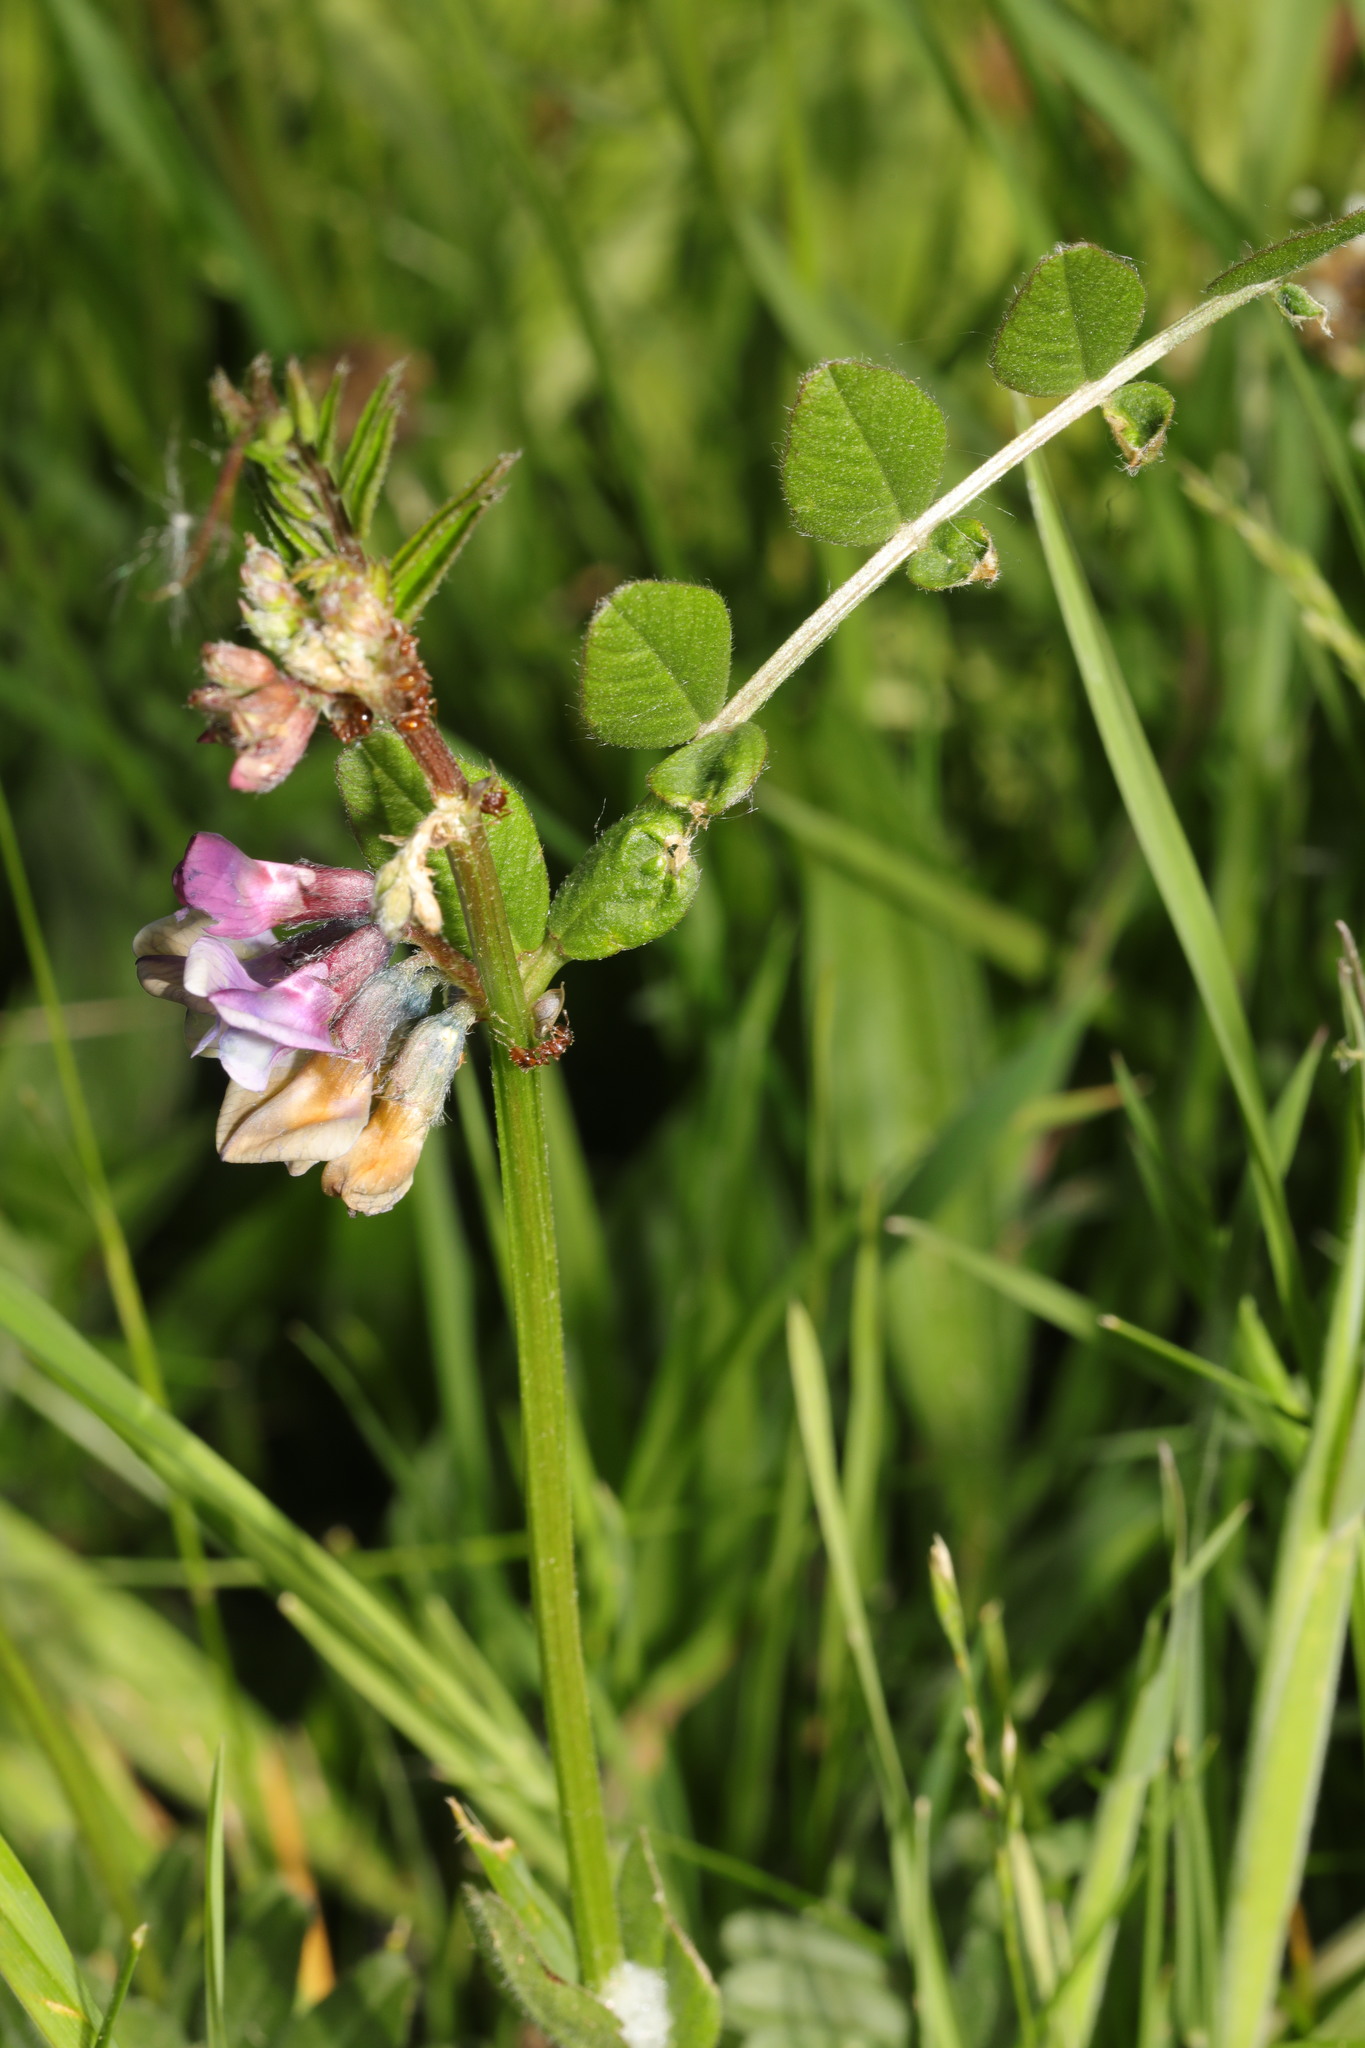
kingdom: Plantae
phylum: Tracheophyta
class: Magnoliopsida
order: Fabales
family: Fabaceae
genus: Vicia
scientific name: Vicia sepium
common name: Bush vetch
